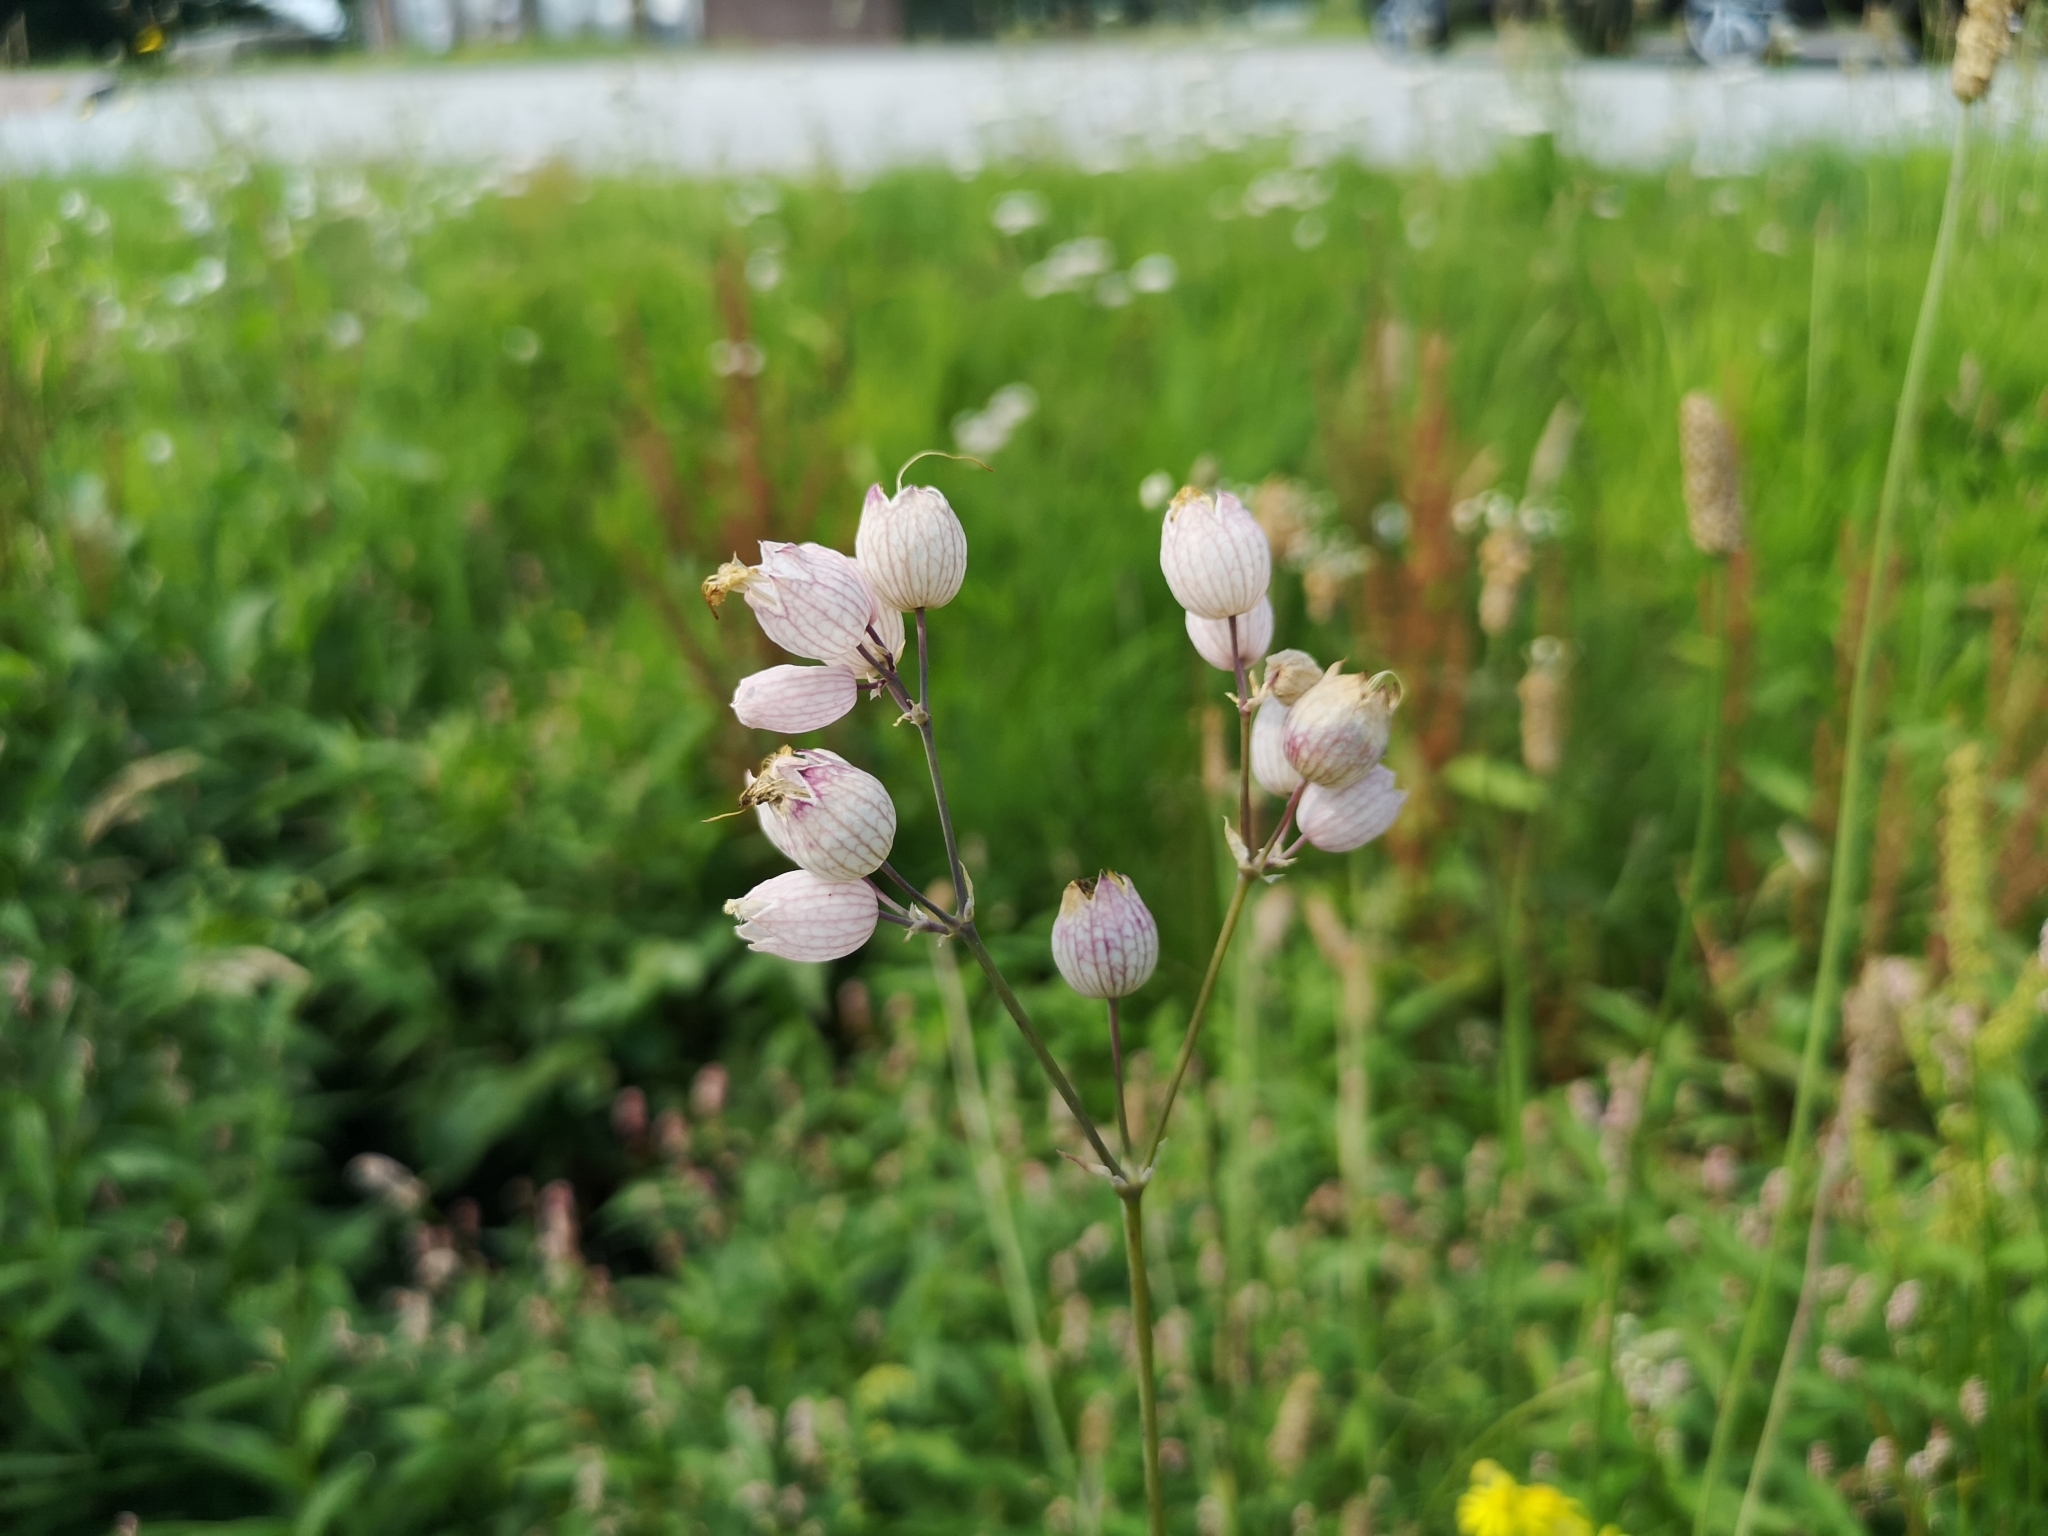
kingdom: Plantae
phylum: Tracheophyta
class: Magnoliopsida
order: Caryophyllales
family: Caryophyllaceae
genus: Silene
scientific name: Silene vulgaris
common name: Bladder campion
